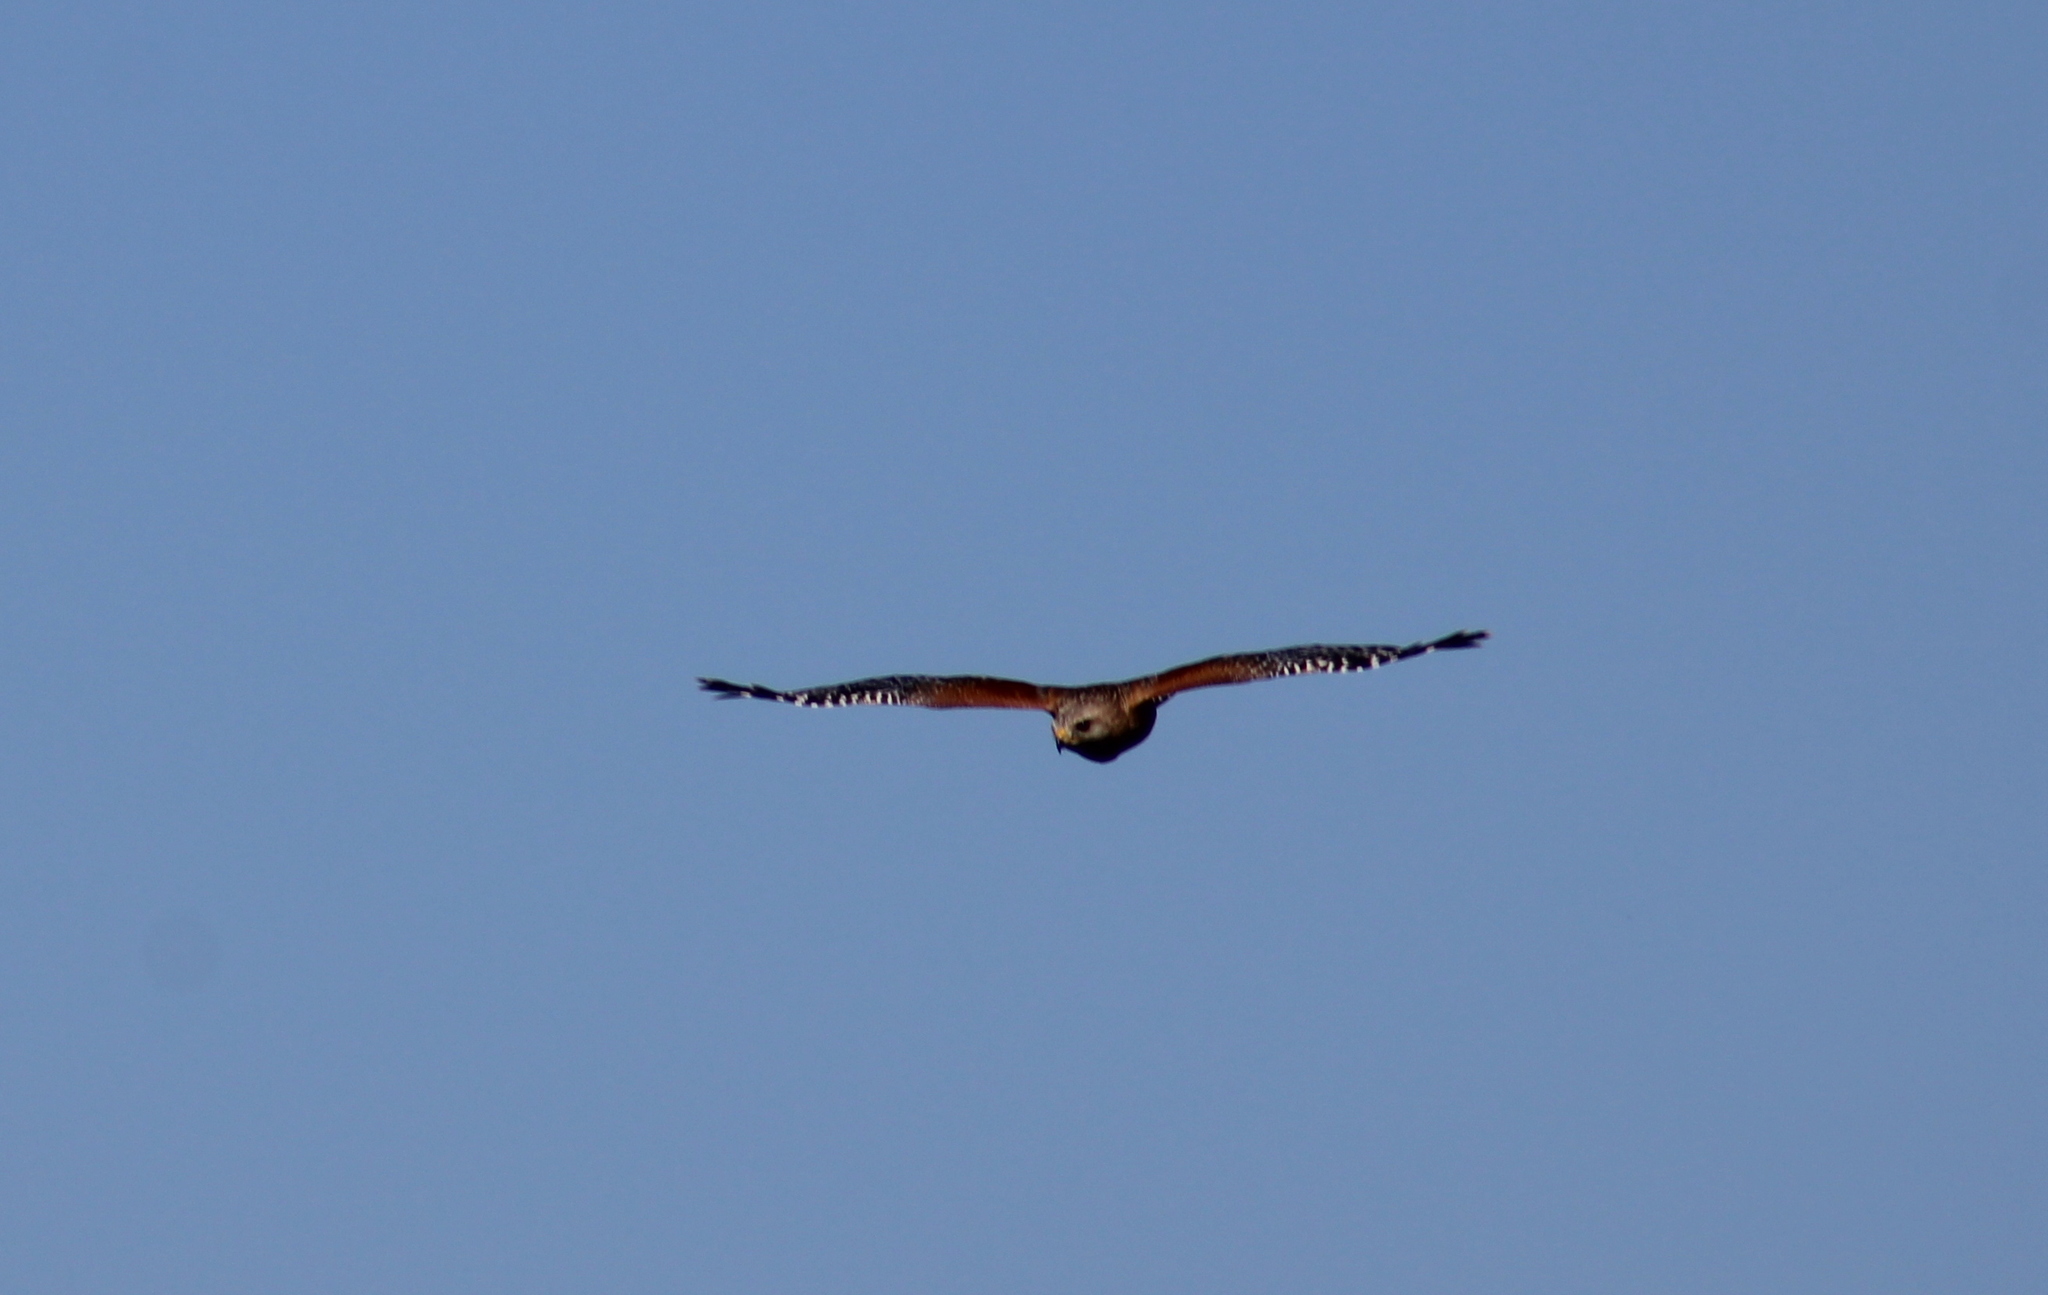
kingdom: Animalia
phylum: Chordata
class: Aves
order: Accipitriformes
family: Accipitridae
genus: Buteo
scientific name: Buteo lineatus
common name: Red-shouldered hawk
